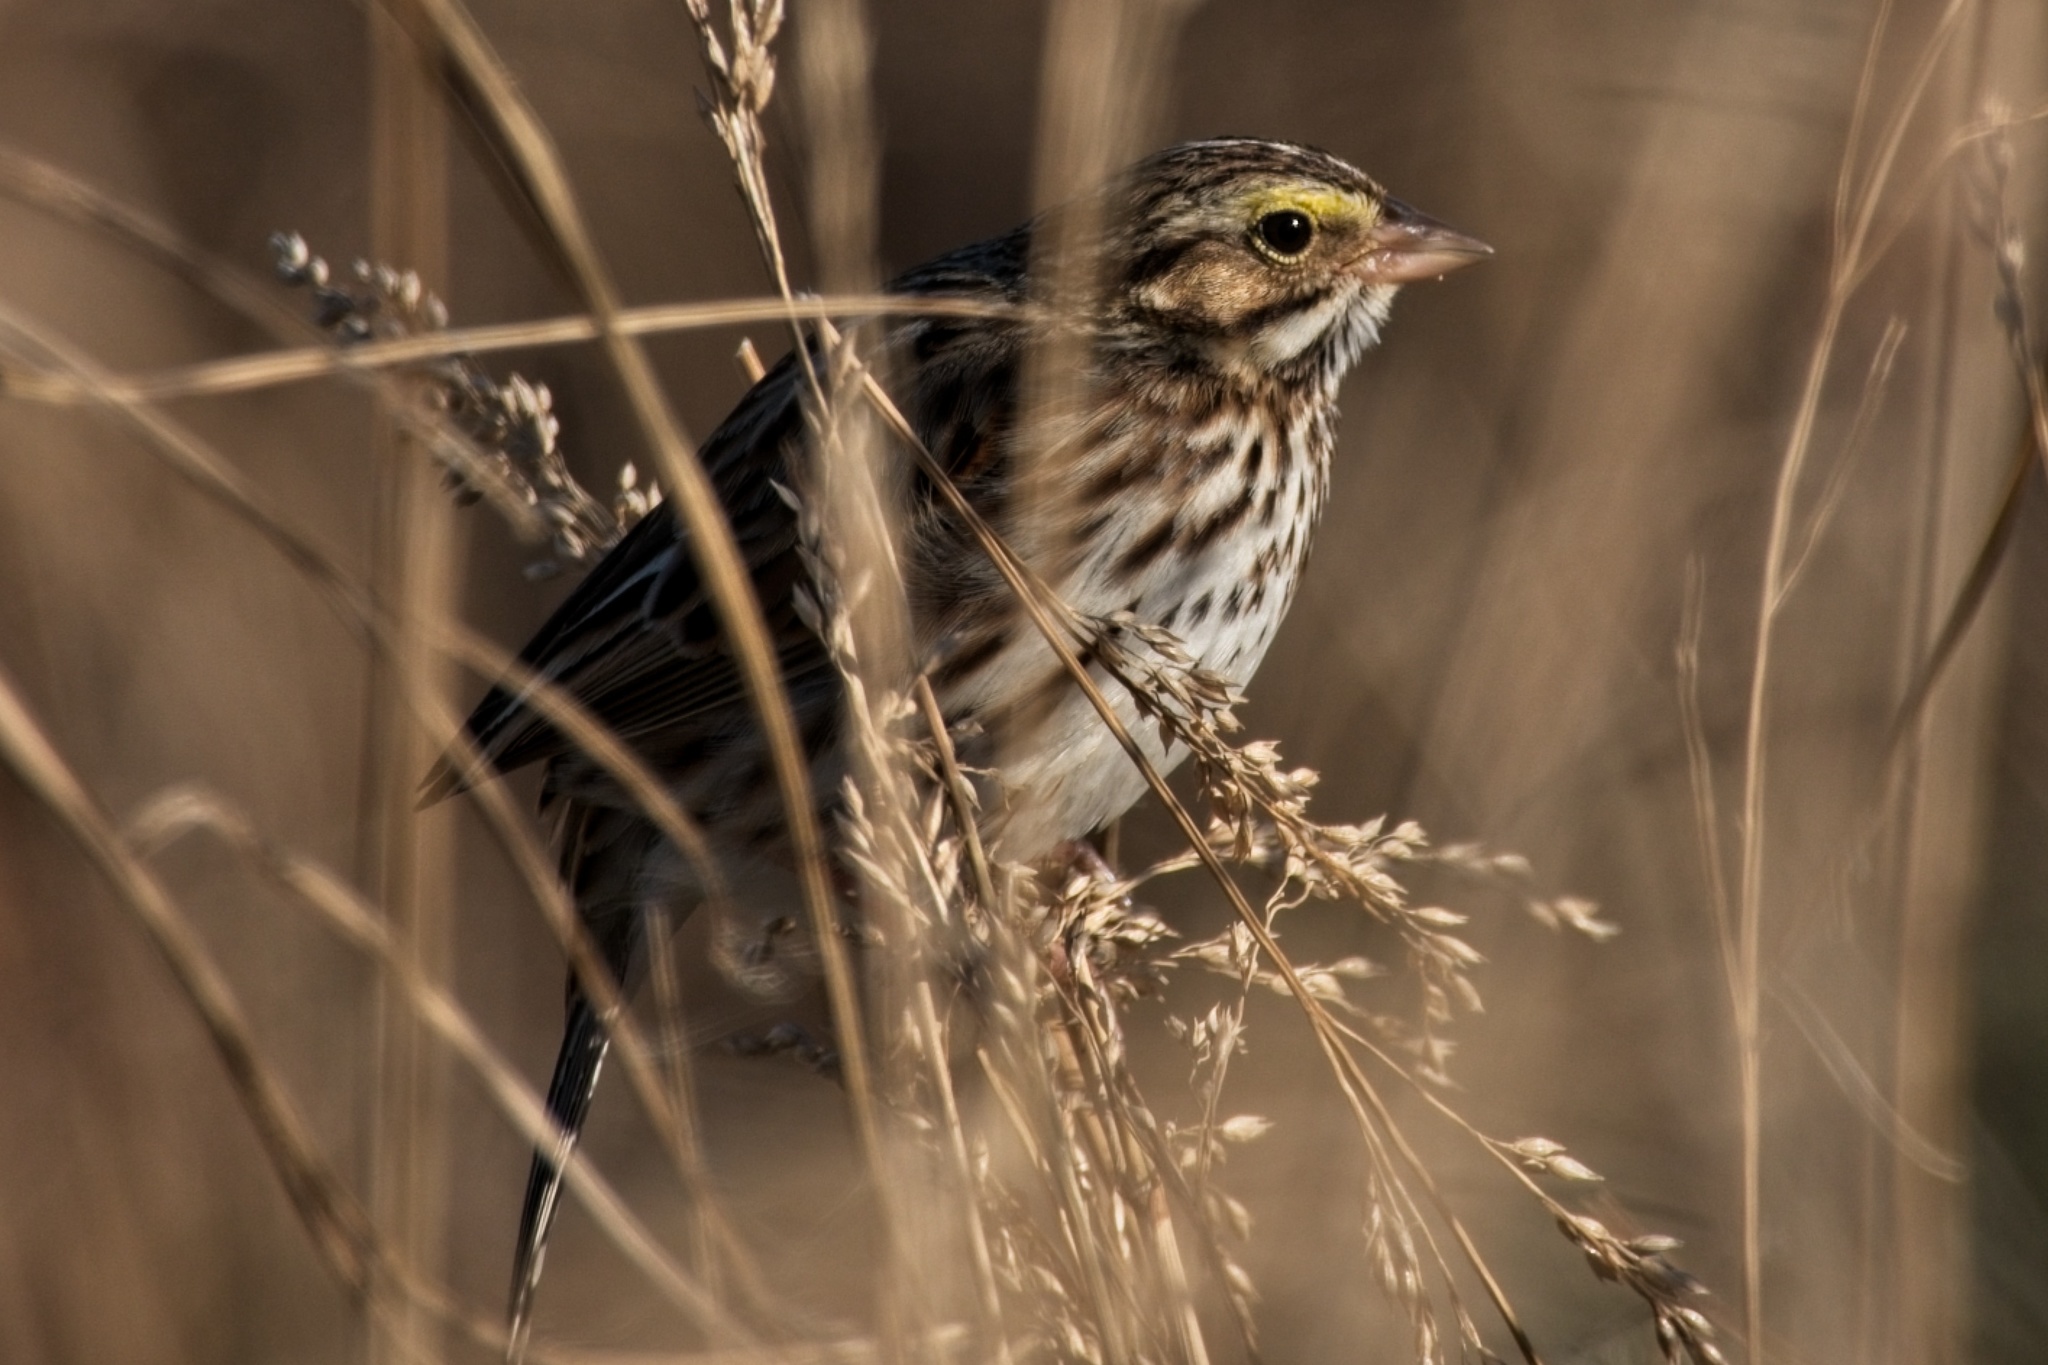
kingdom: Animalia
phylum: Chordata
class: Aves
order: Passeriformes
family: Passerellidae
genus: Passerculus
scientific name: Passerculus sandwichensis
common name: Savannah sparrow
